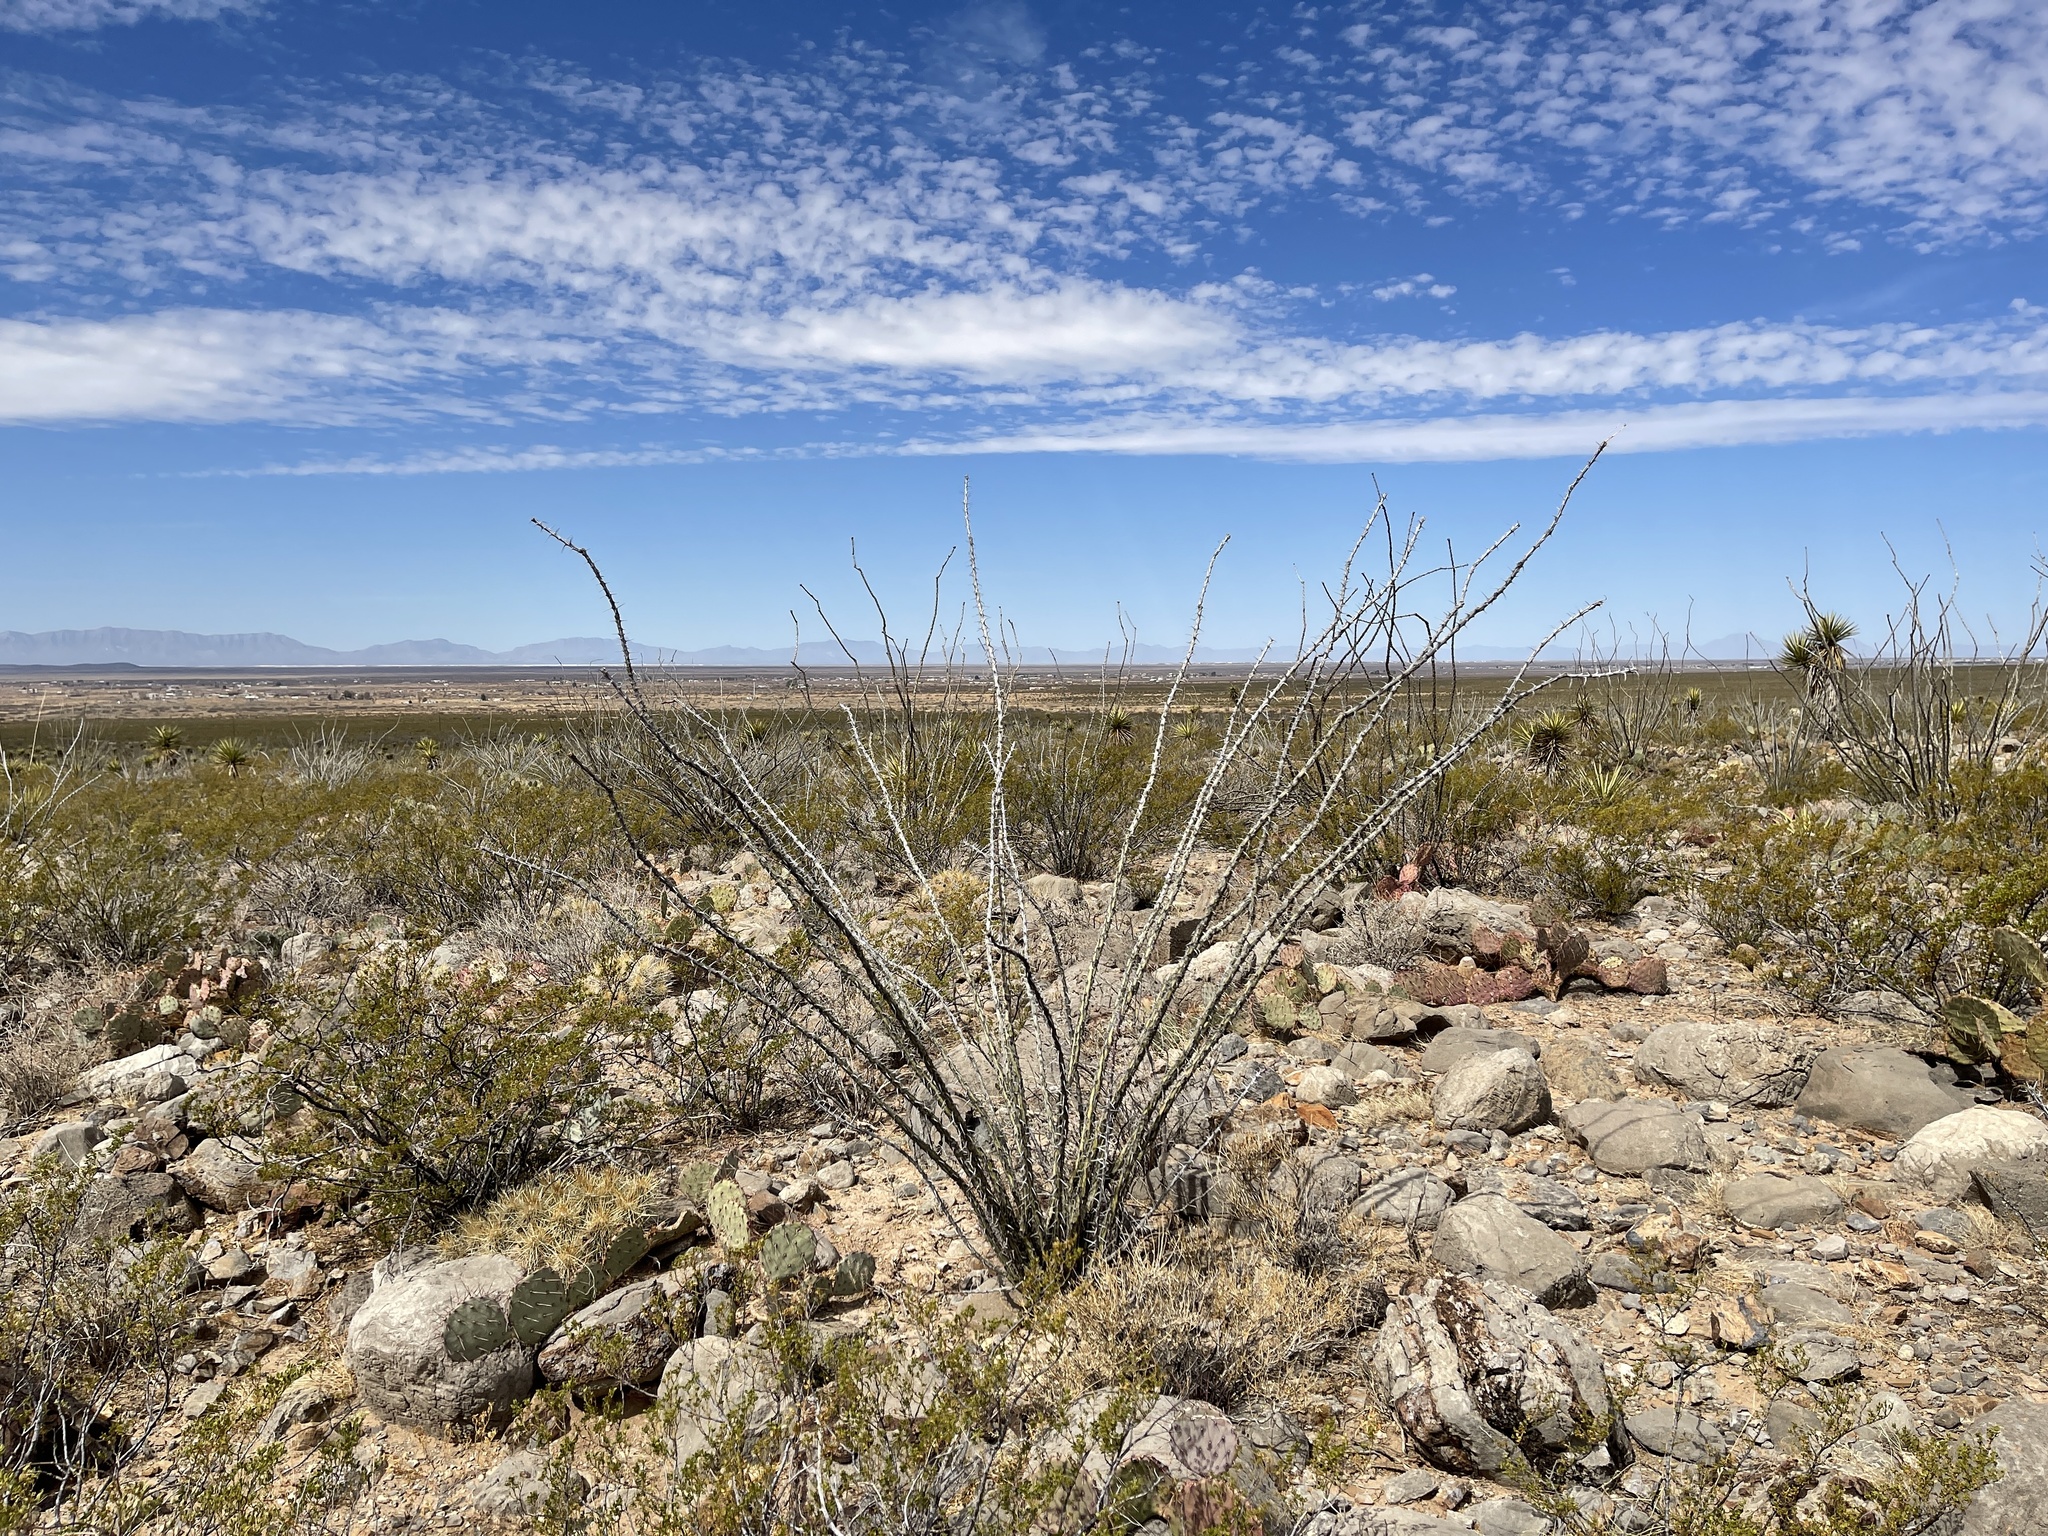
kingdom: Plantae
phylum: Tracheophyta
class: Magnoliopsida
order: Ericales
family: Fouquieriaceae
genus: Fouquieria
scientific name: Fouquieria splendens
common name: Vine-cactus
